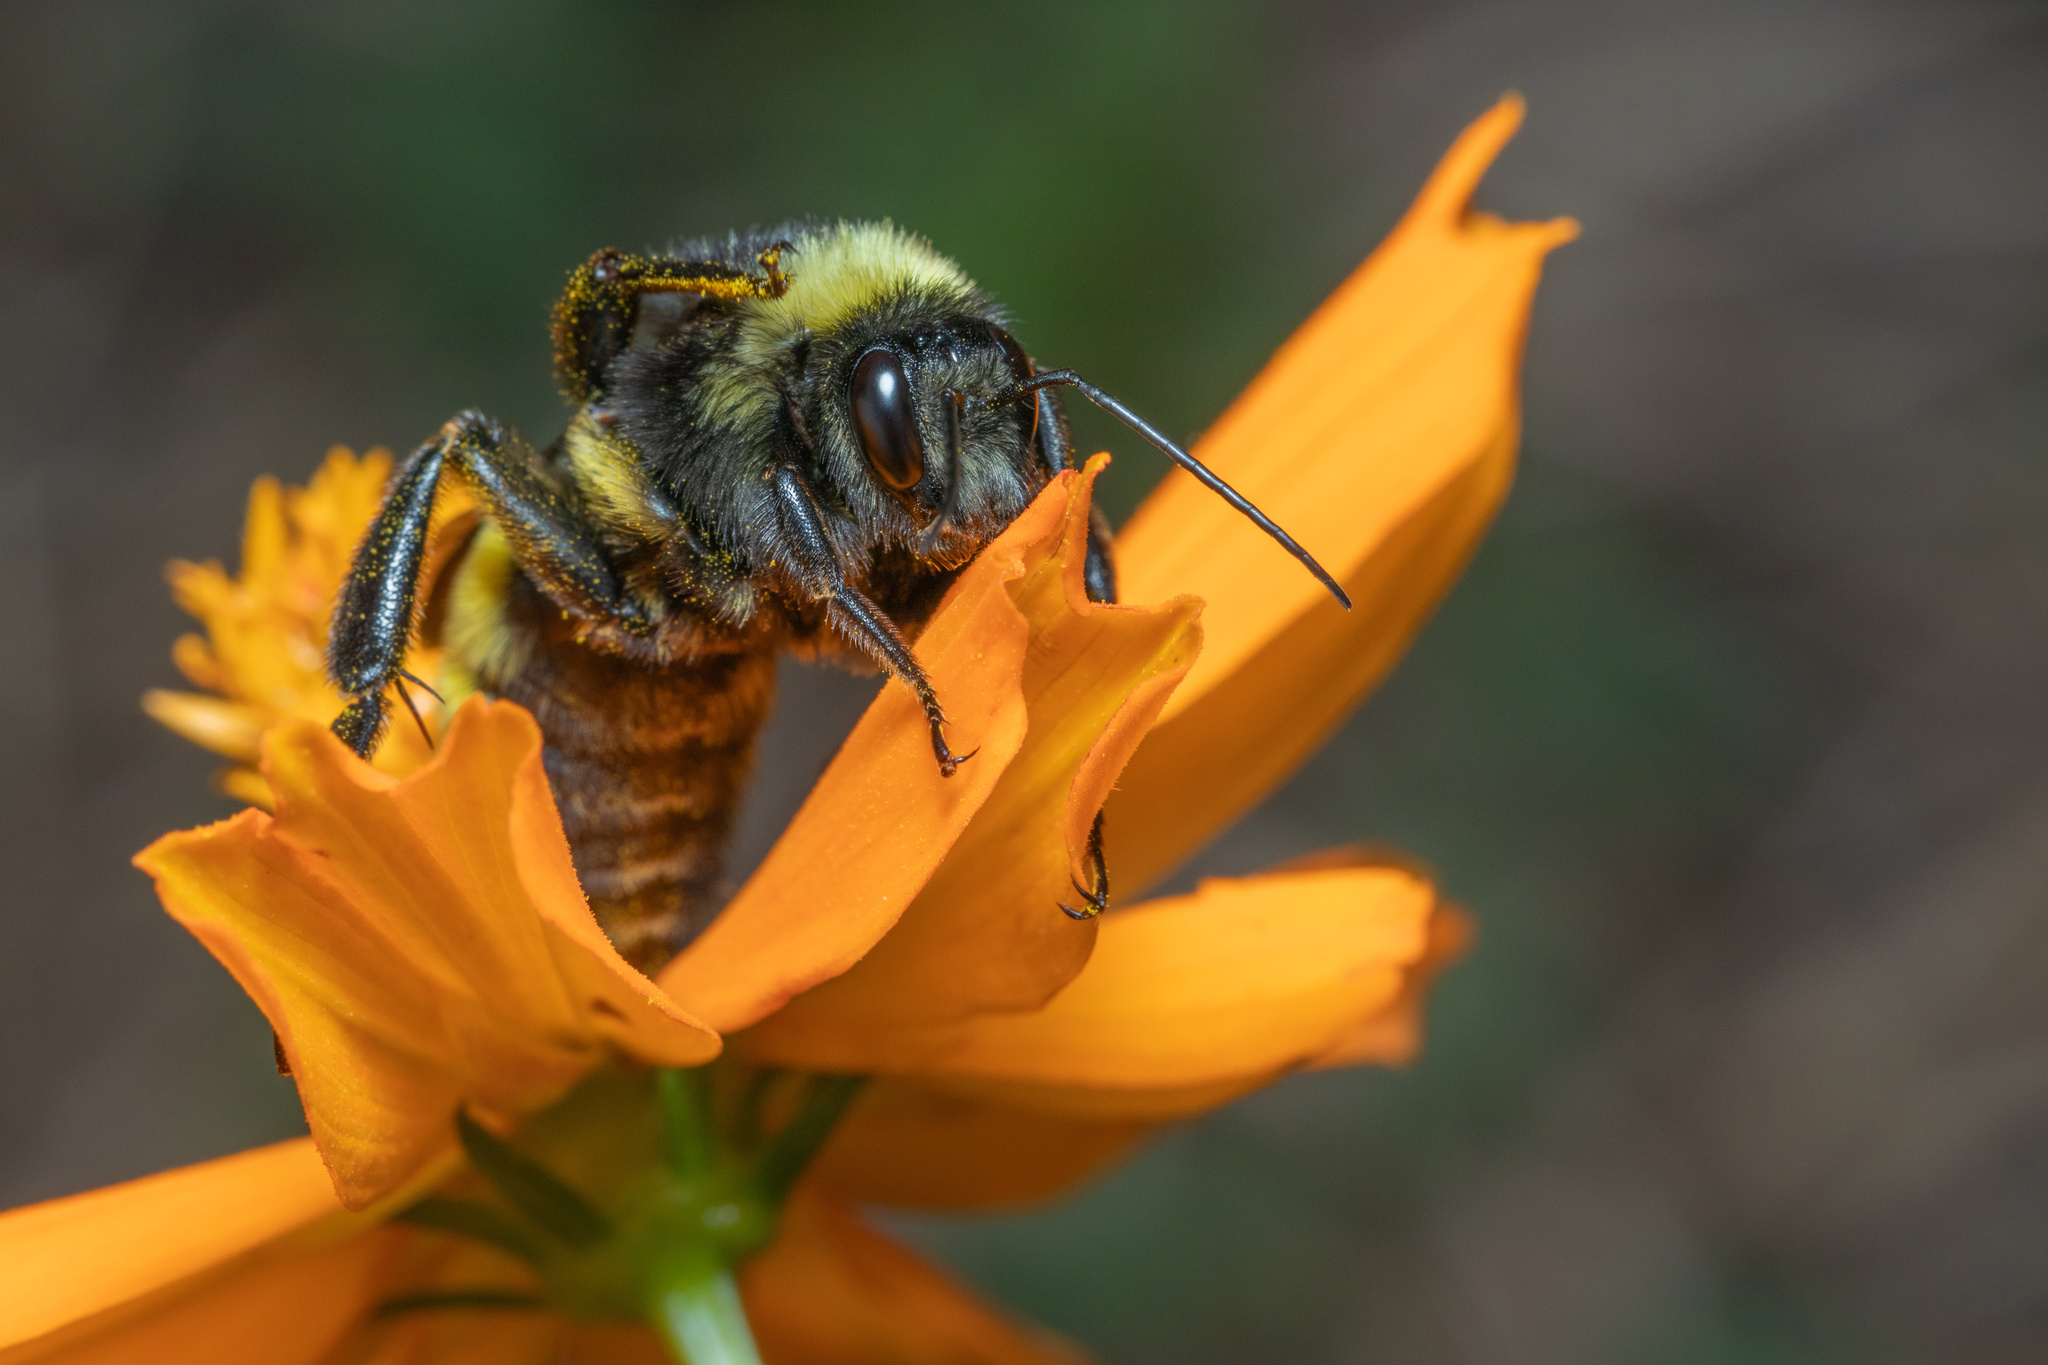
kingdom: Animalia
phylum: Arthropoda
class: Insecta
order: Hymenoptera
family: Apidae
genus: Bombus
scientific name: Bombus pensylvanicus
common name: Bumble bee
